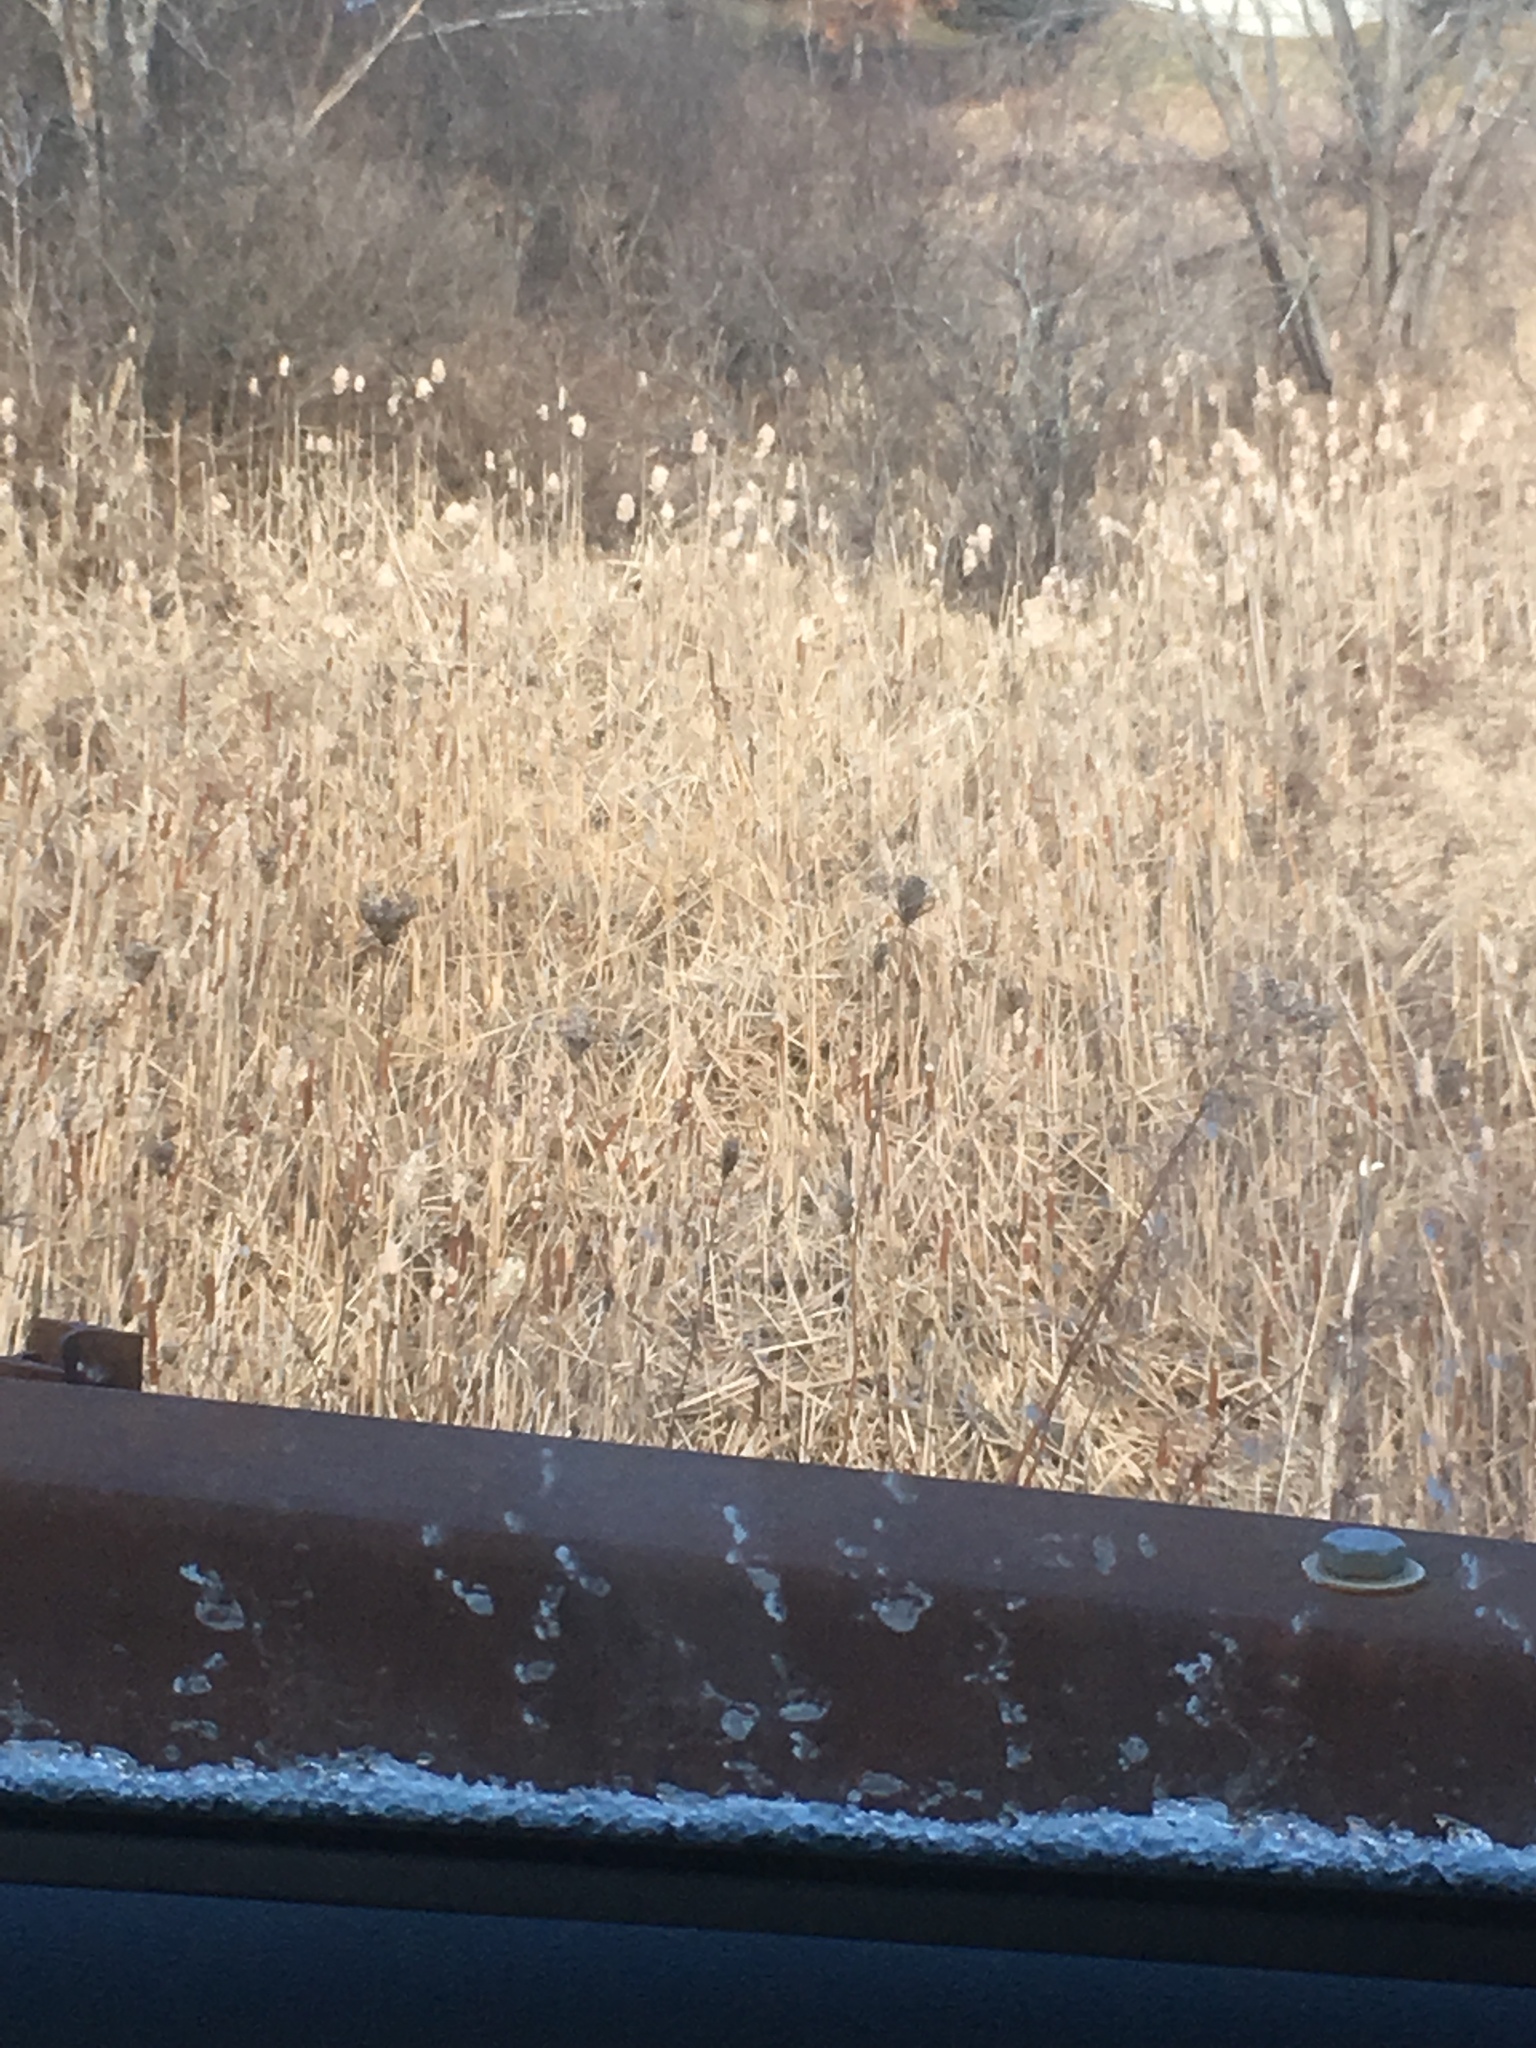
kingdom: Plantae
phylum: Tracheophyta
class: Liliopsida
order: Poales
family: Typhaceae
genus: Typha
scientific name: Typha
